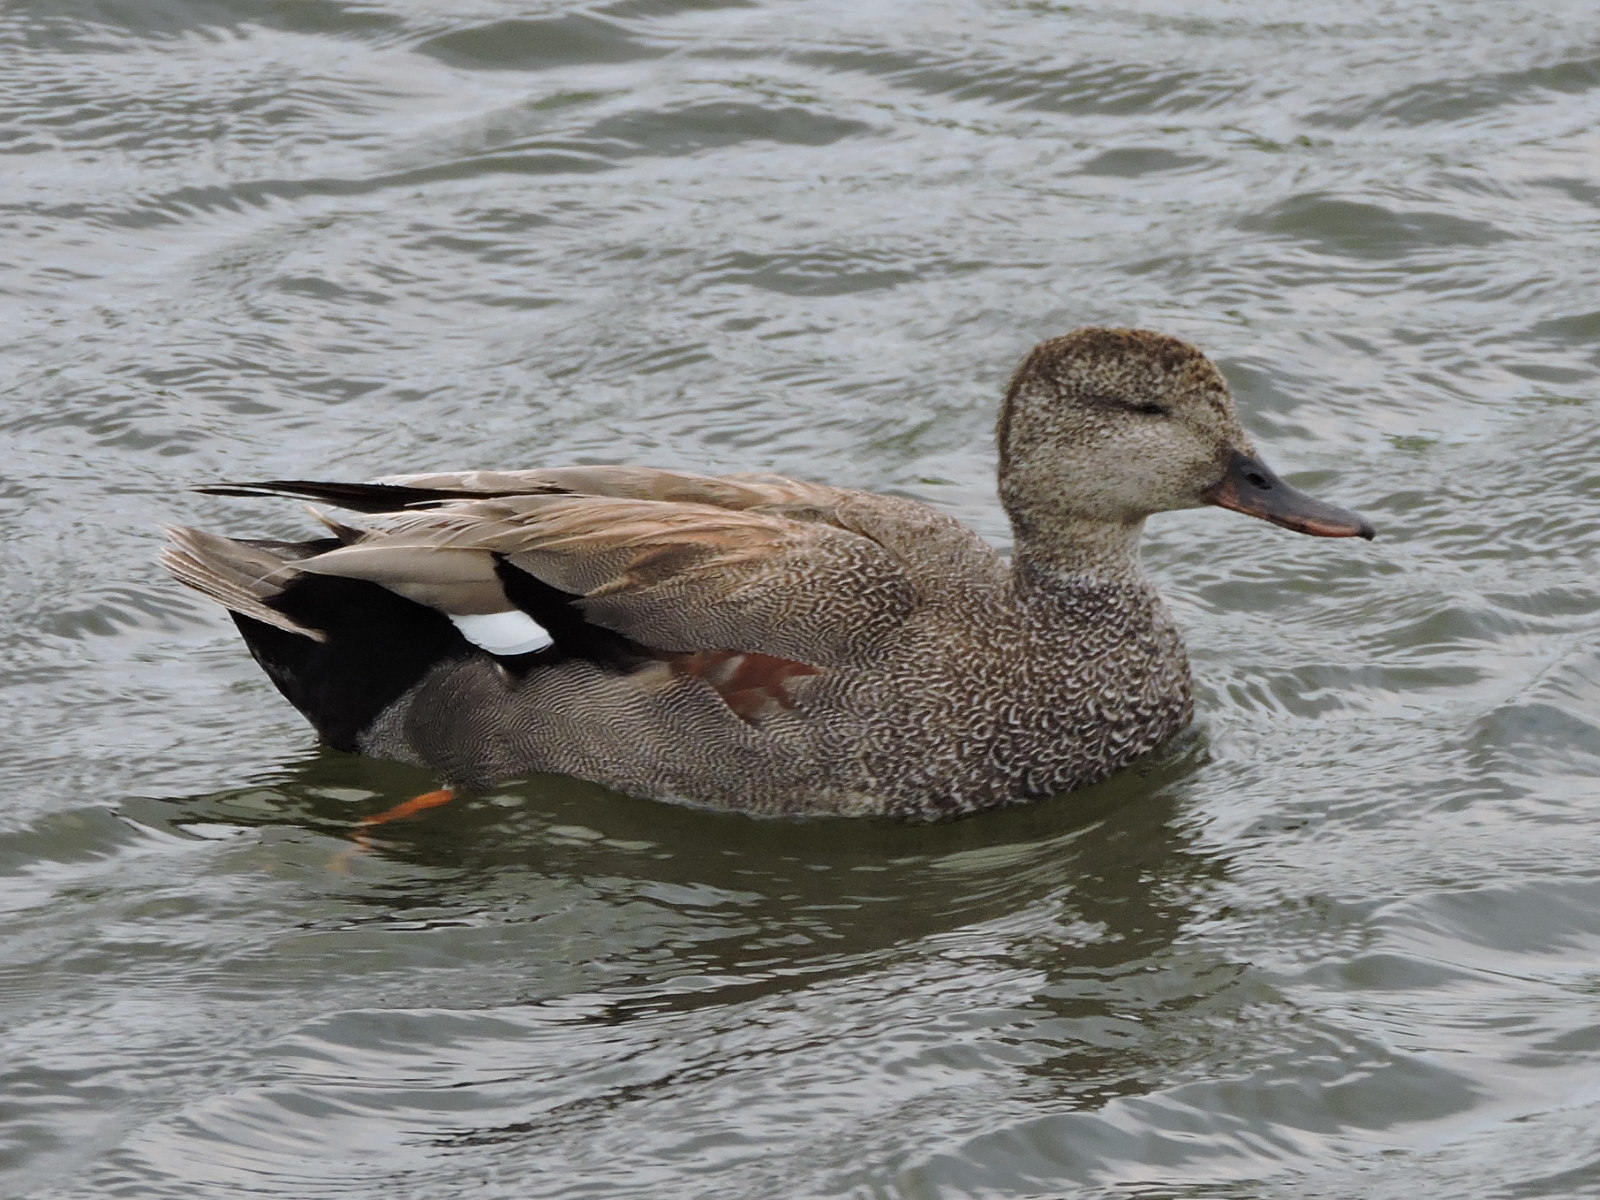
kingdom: Animalia
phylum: Chordata
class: Aves
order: Anseriformes
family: Anatidae
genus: Mareca
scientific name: Mareca strepera
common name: Gadwall
